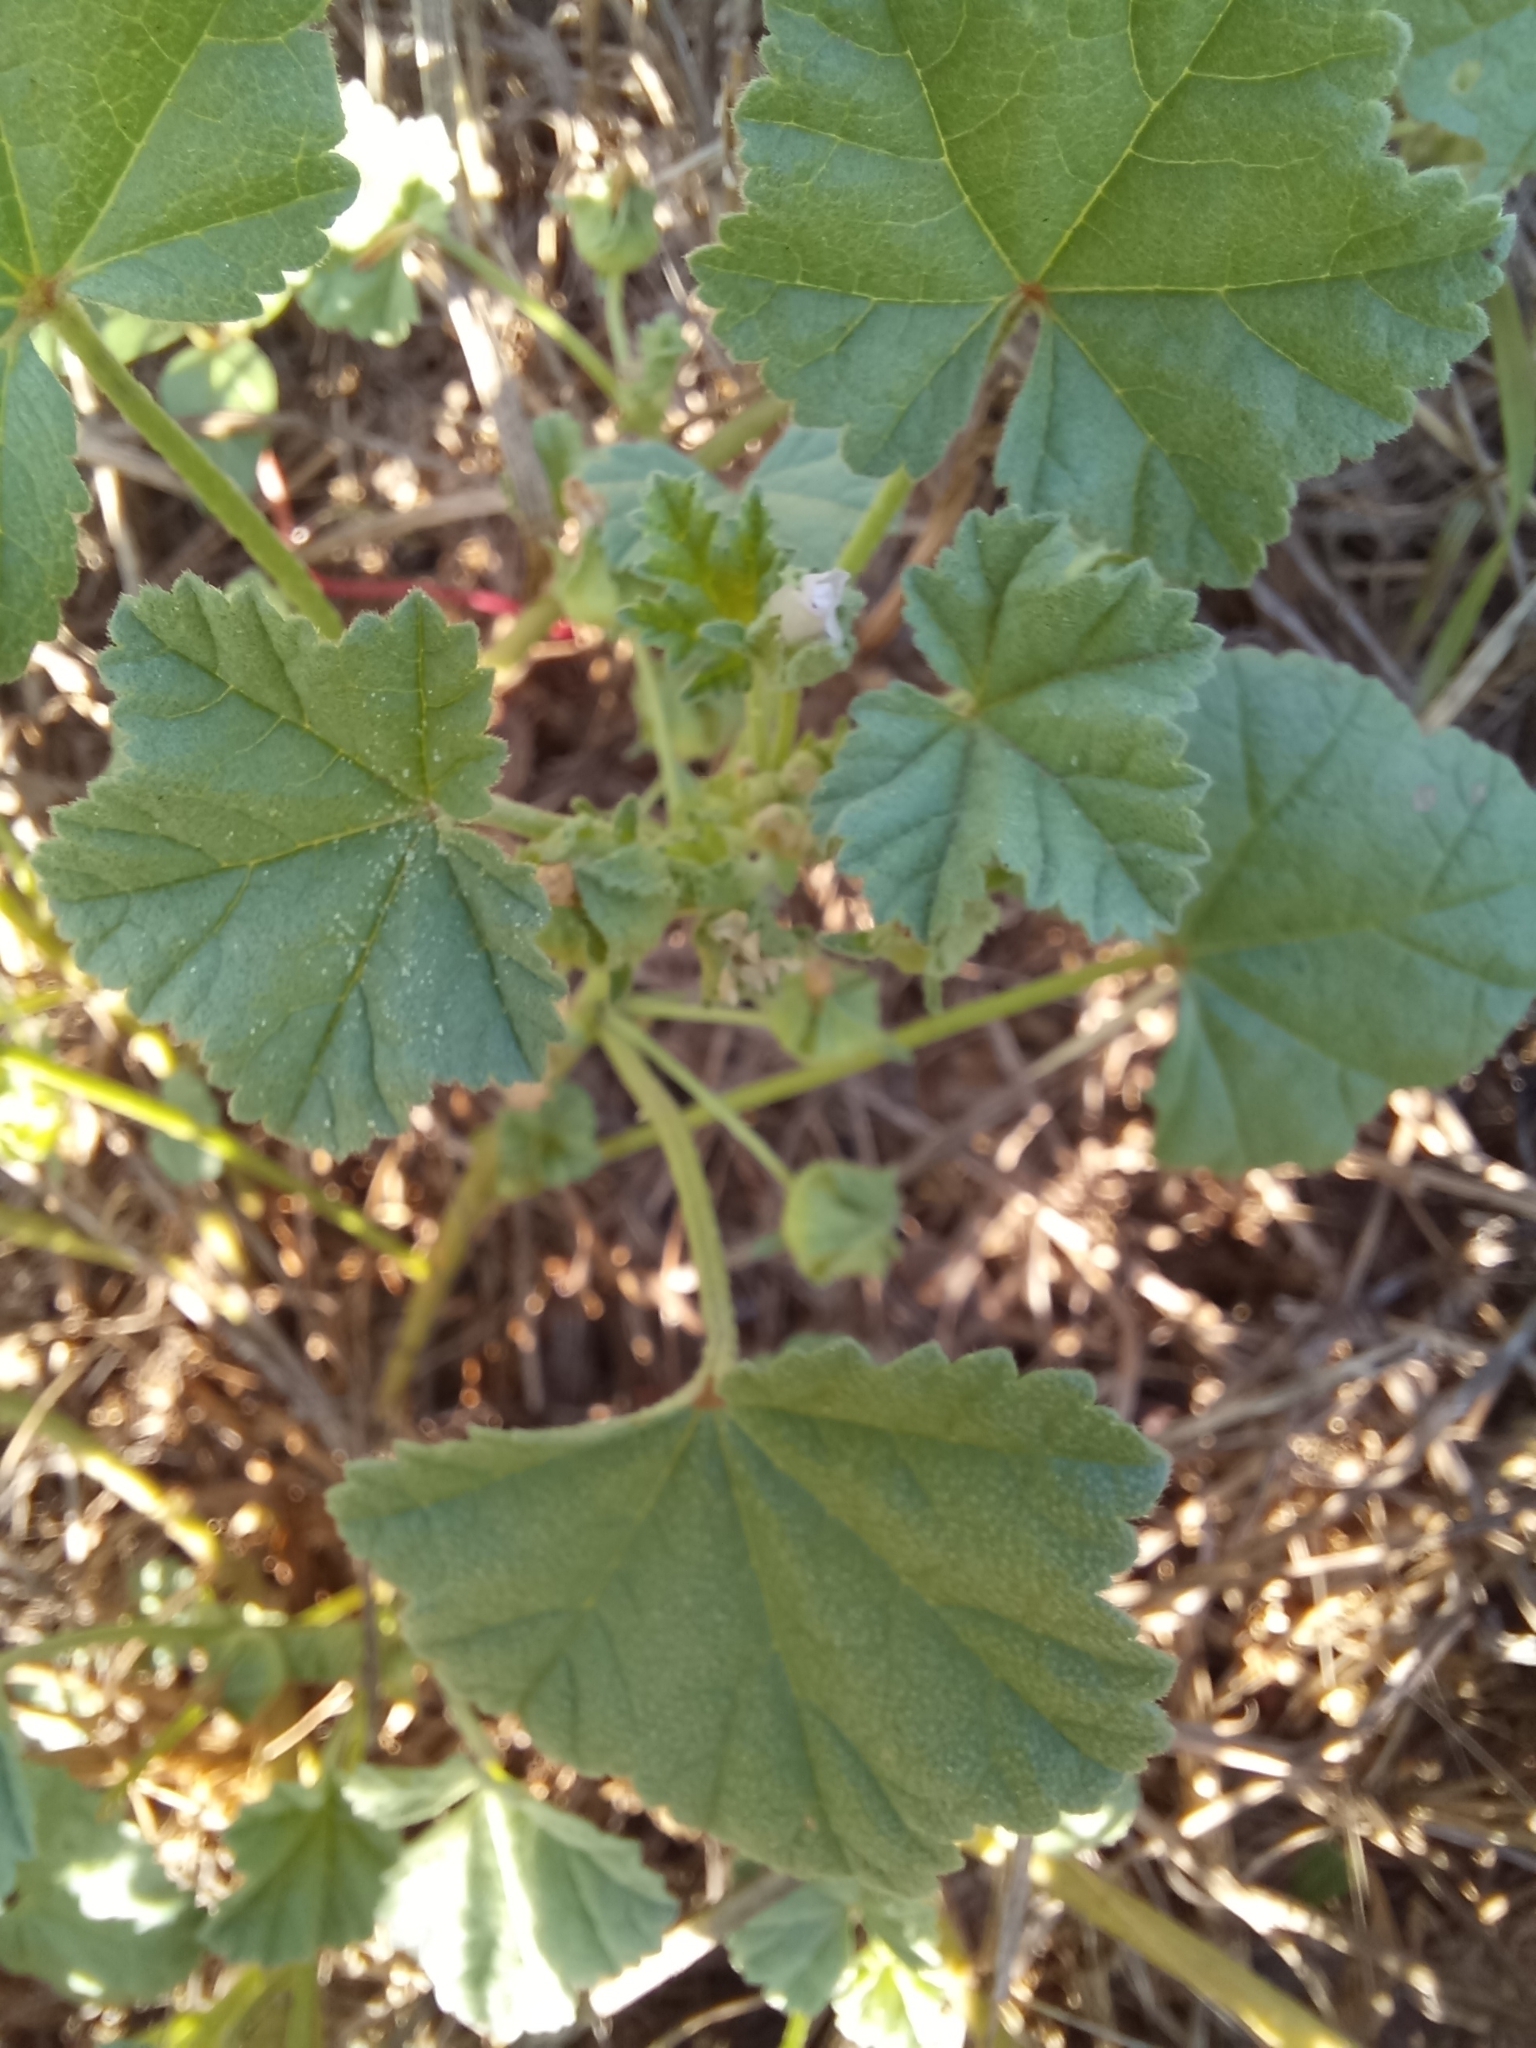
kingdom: Plantae
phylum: Tracheophyta
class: Magnoliopsida
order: Malvales
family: Malvaceae
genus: Malva
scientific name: Malva neglecta
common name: Common mallow
